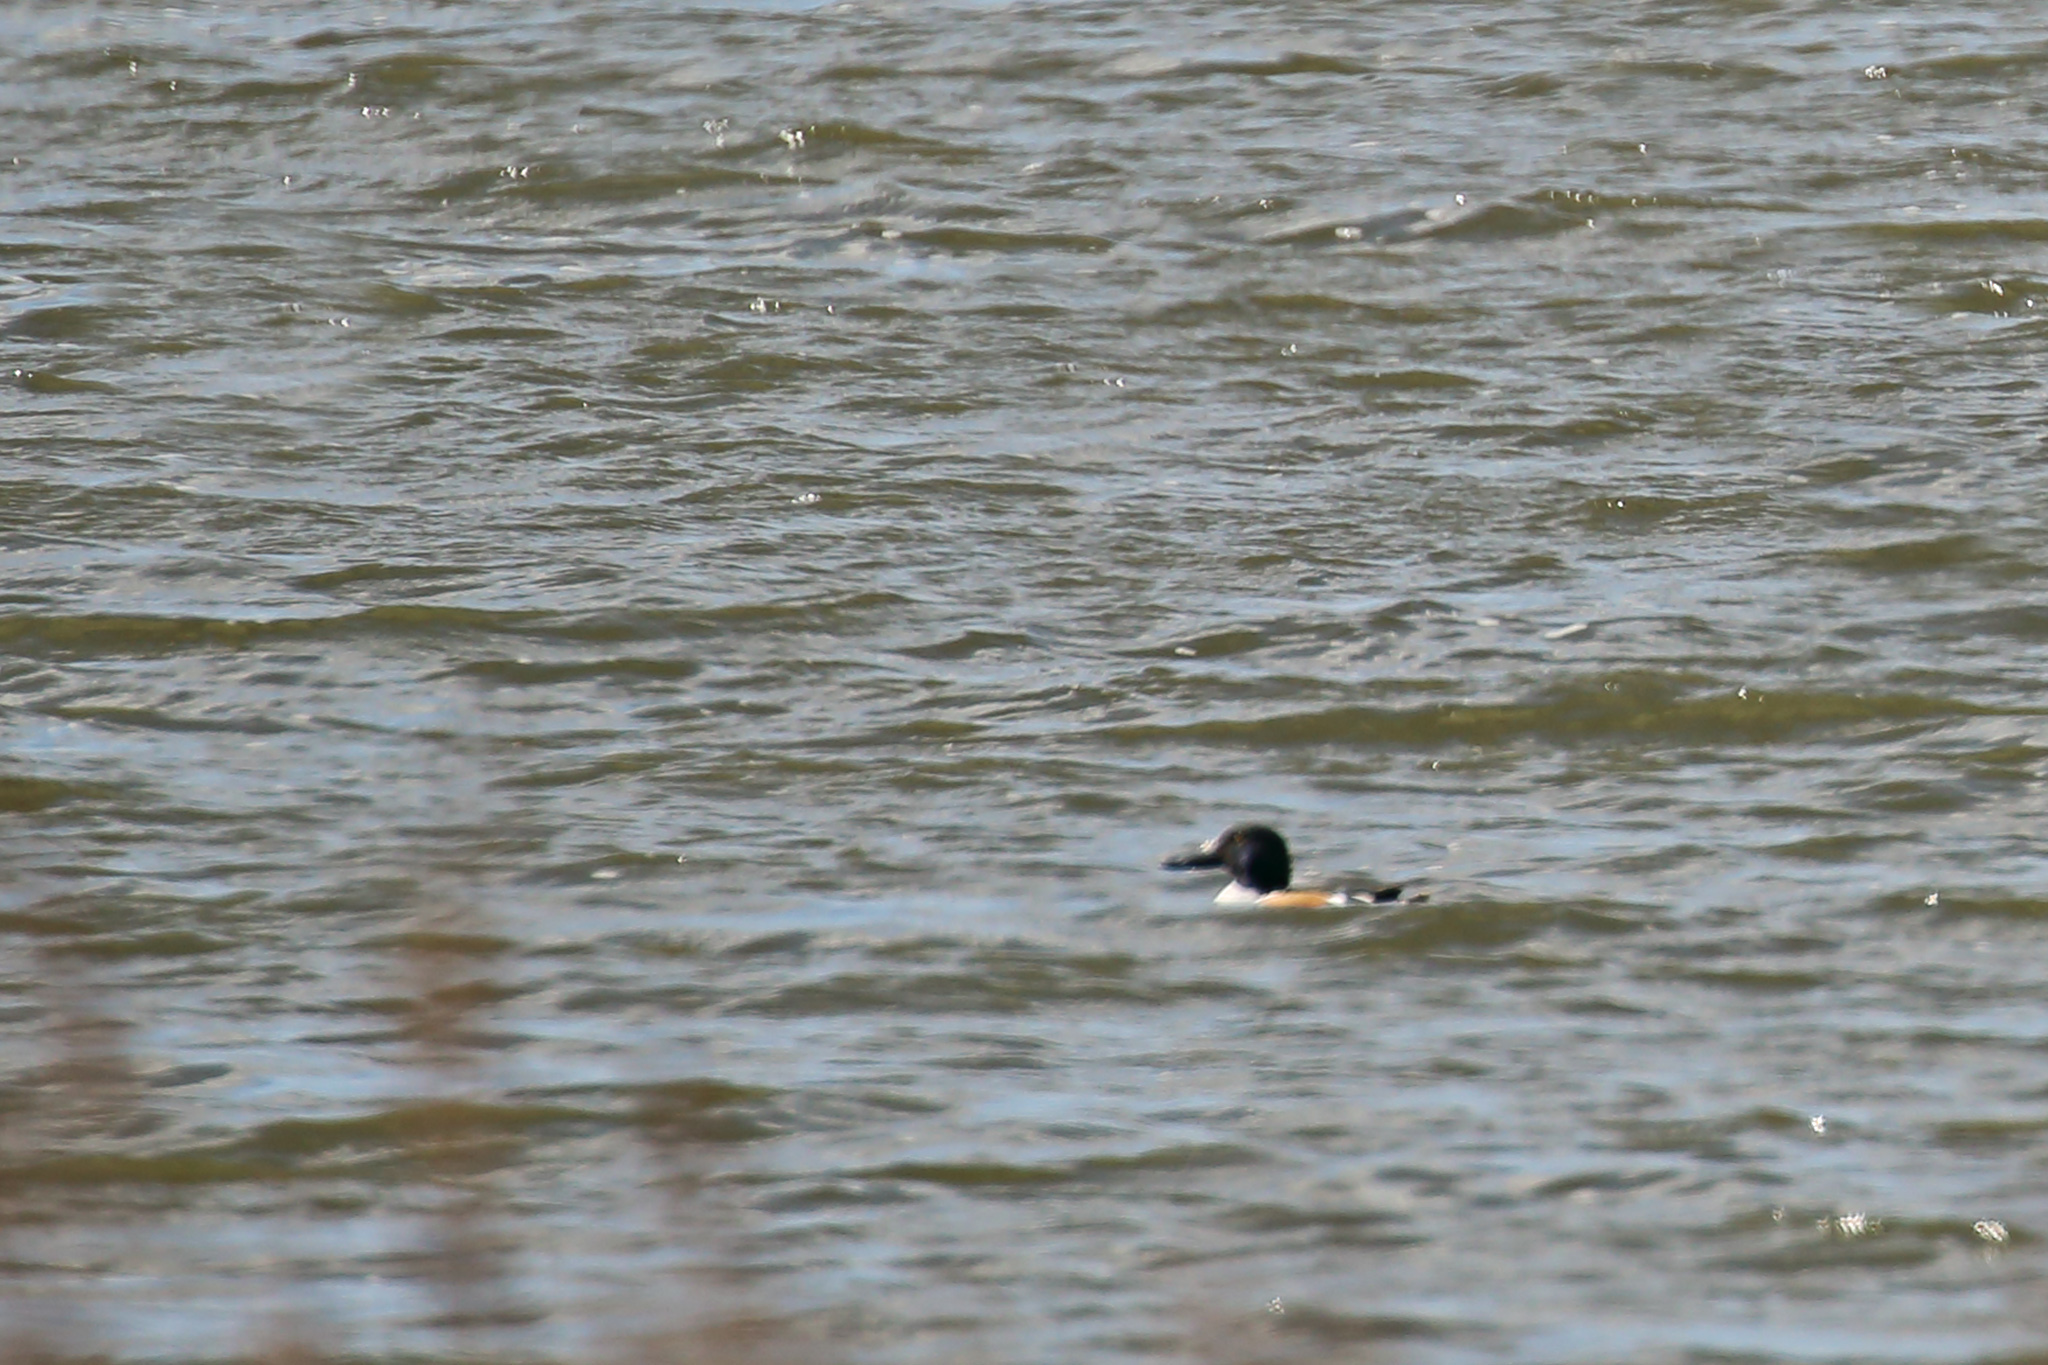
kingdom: Animalia
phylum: Chordata
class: Aves
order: Anseriformes
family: Anatidae
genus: Spatula
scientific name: Spatula clypeata
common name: Northern shoveler
